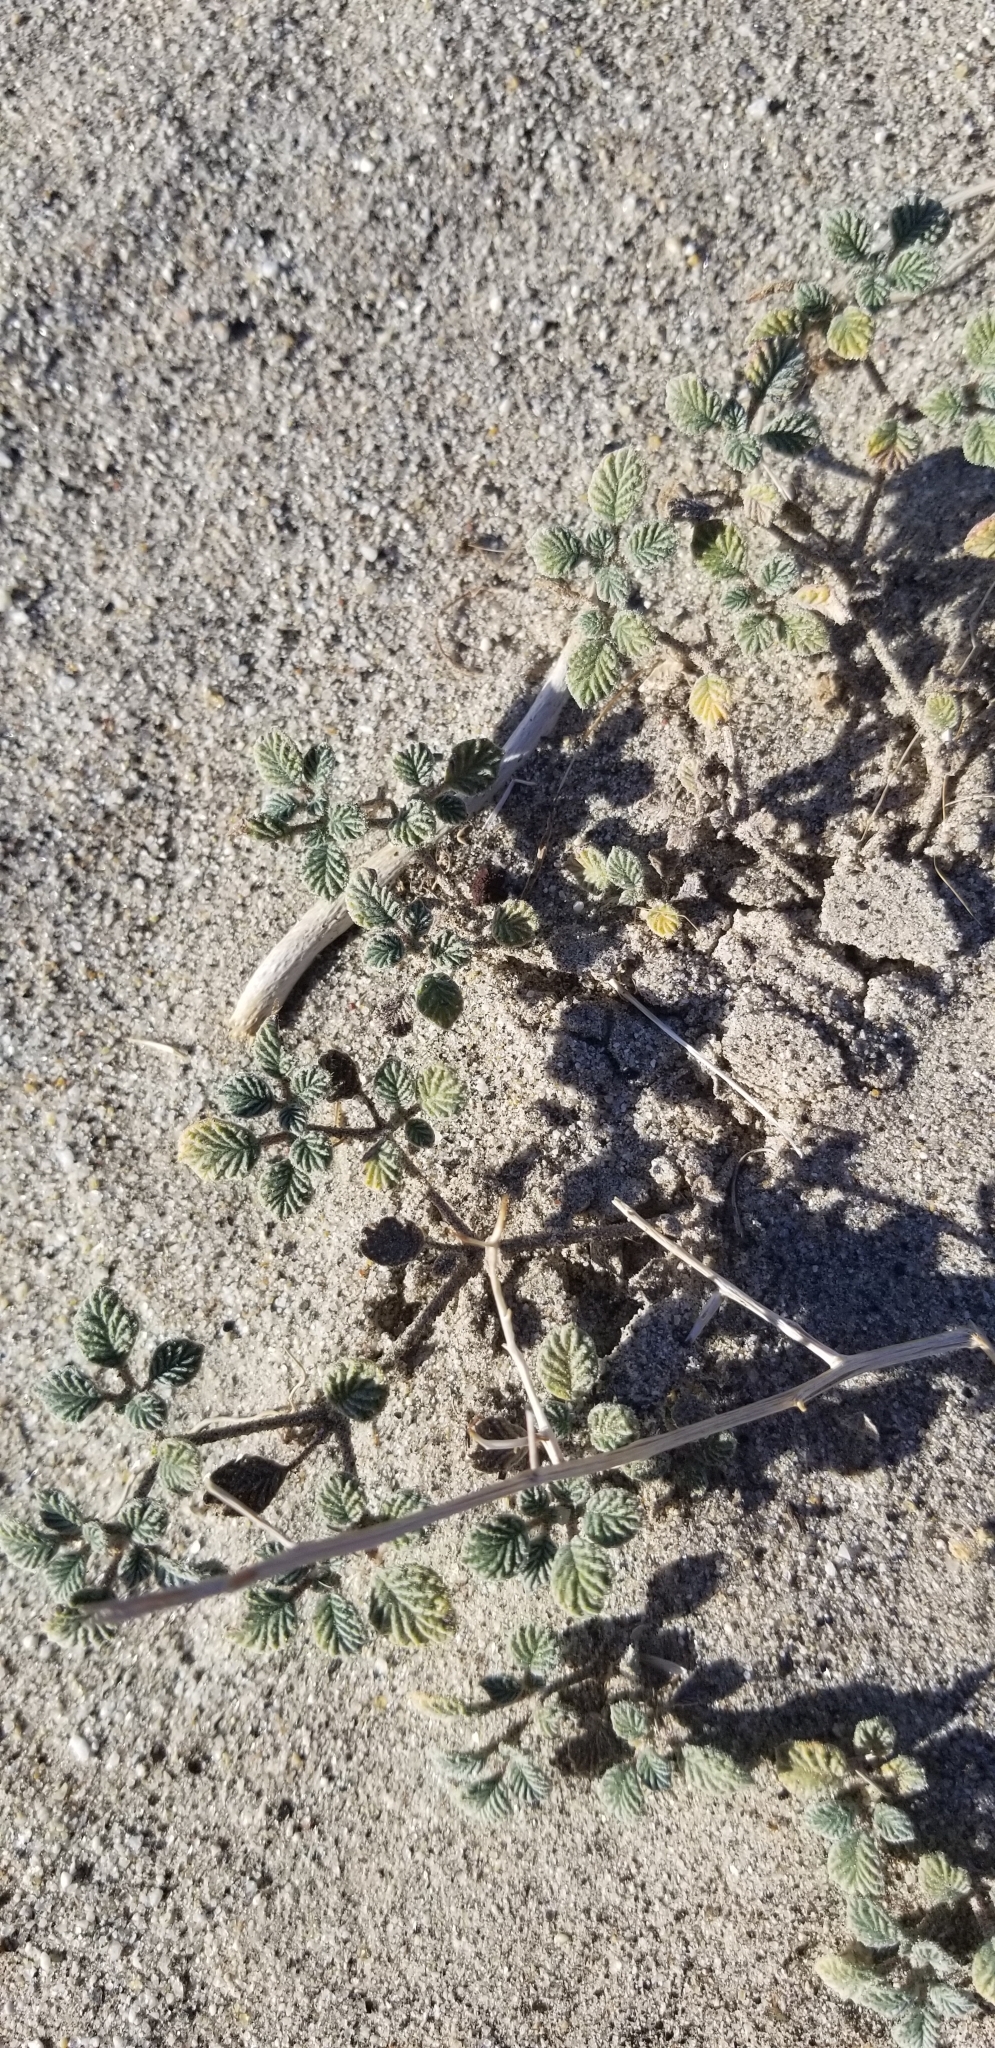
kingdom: Plantae
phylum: Tracheophyta
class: Magnoliopsida
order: Boraginales
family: Ehretiaceae
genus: Tiquilia
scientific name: Tiquilia plicata
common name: Fan-leaf tiquilia
